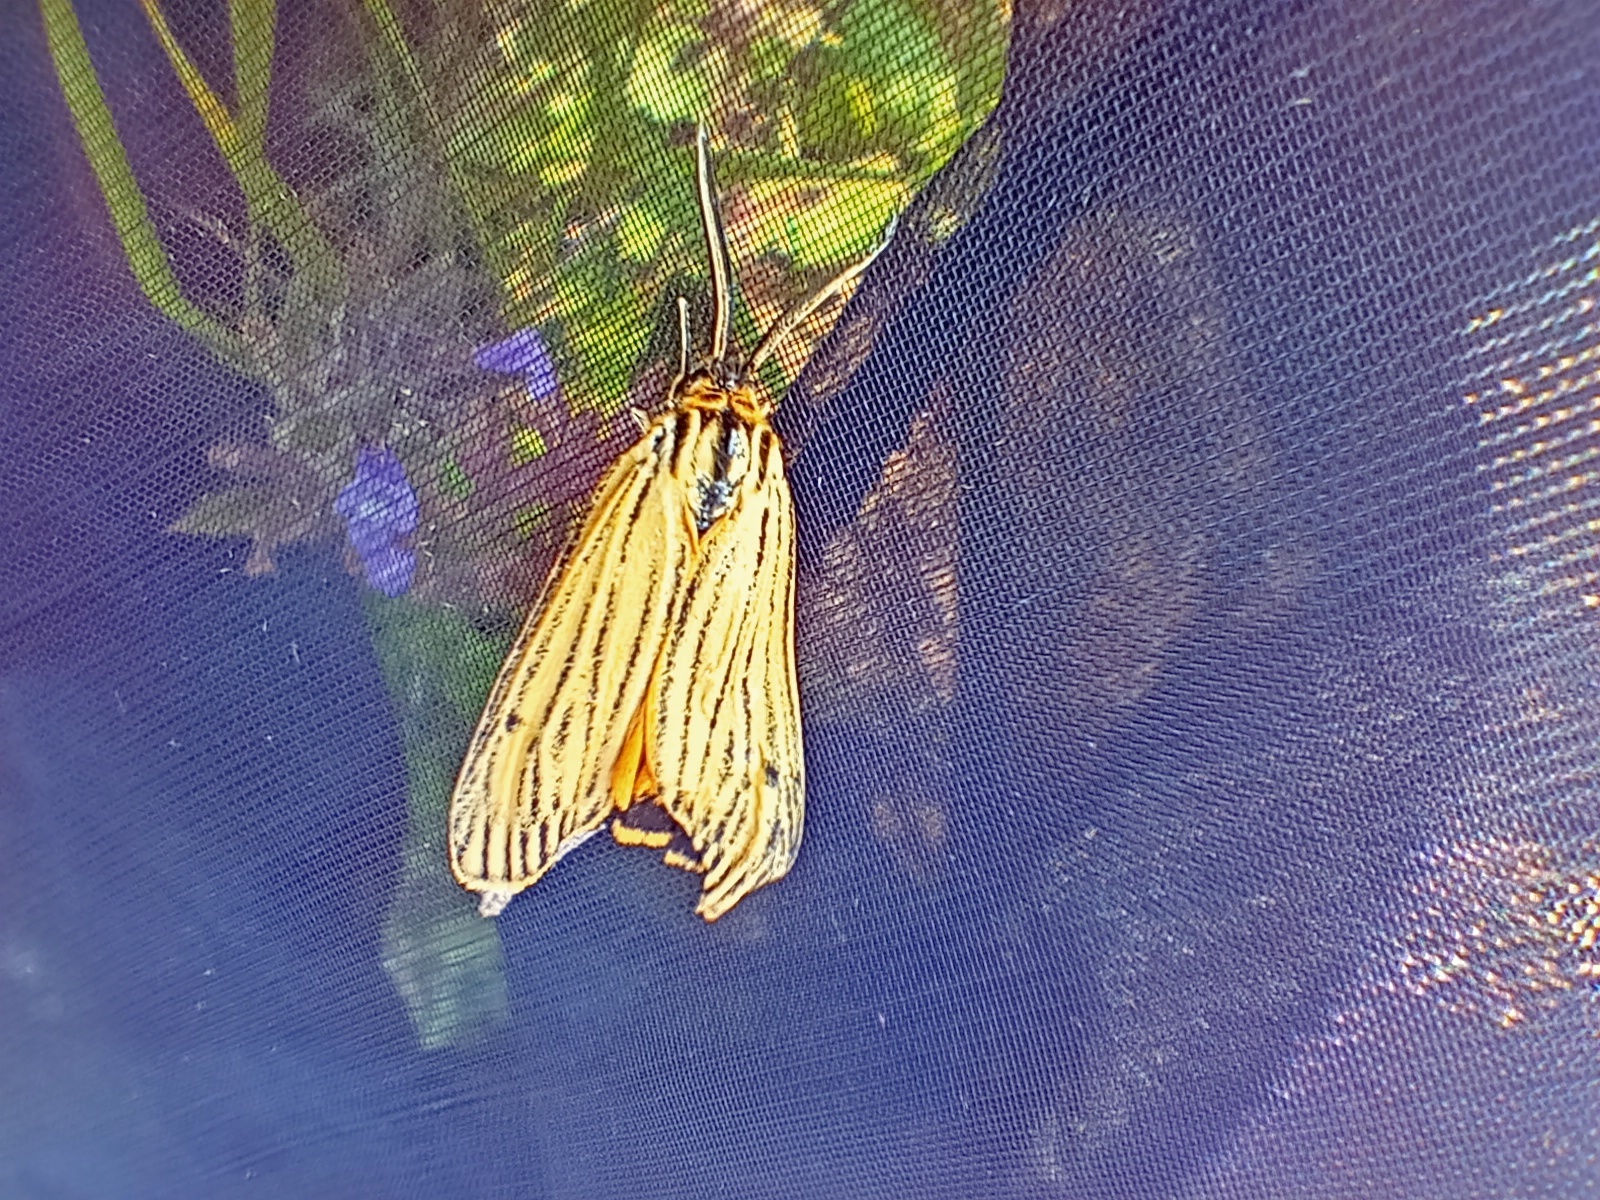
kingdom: Animalia
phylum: Arthropoda
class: Insecta
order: Lepidoptera
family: Erebidae
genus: Coscinia
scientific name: Coscinia Spiris striata
